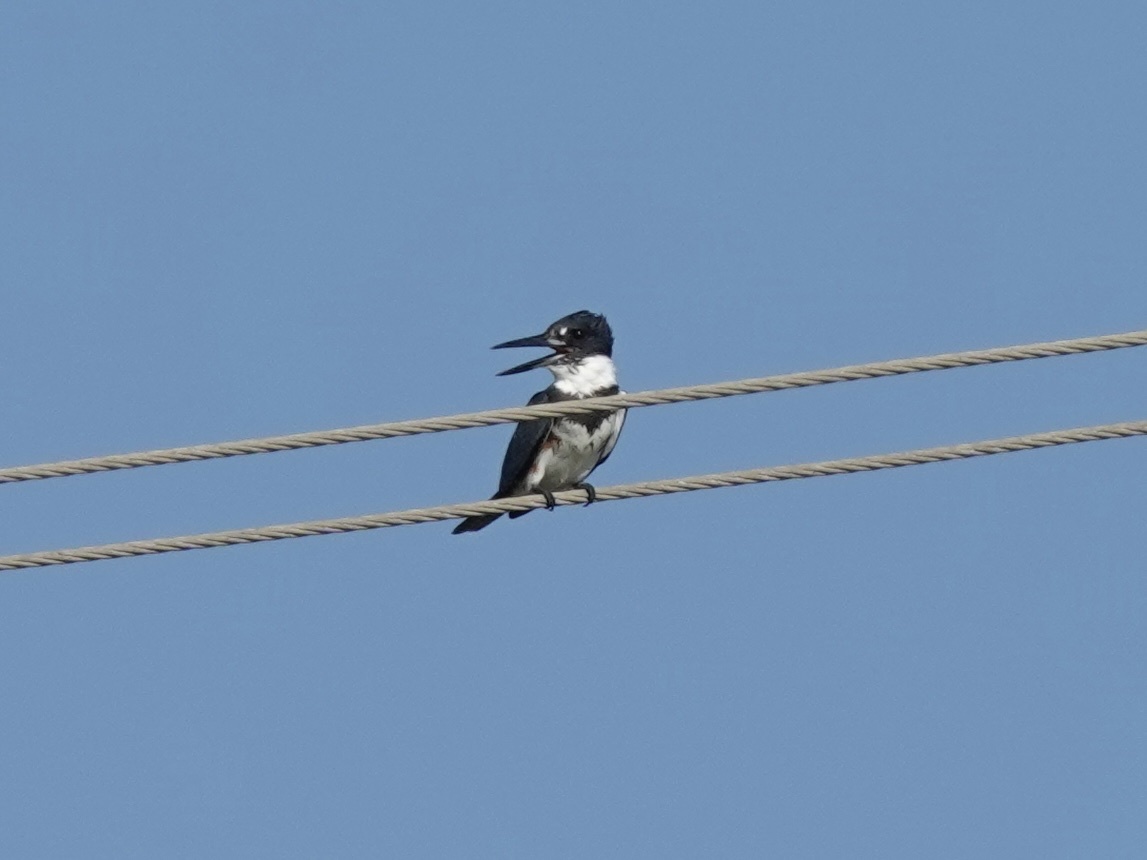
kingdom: Animalia
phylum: Chordata
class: Aves
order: Coraciiformes
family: Alcedinidae
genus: Megaceryle
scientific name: Megaceryle alcyon
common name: Belted kingfisher
